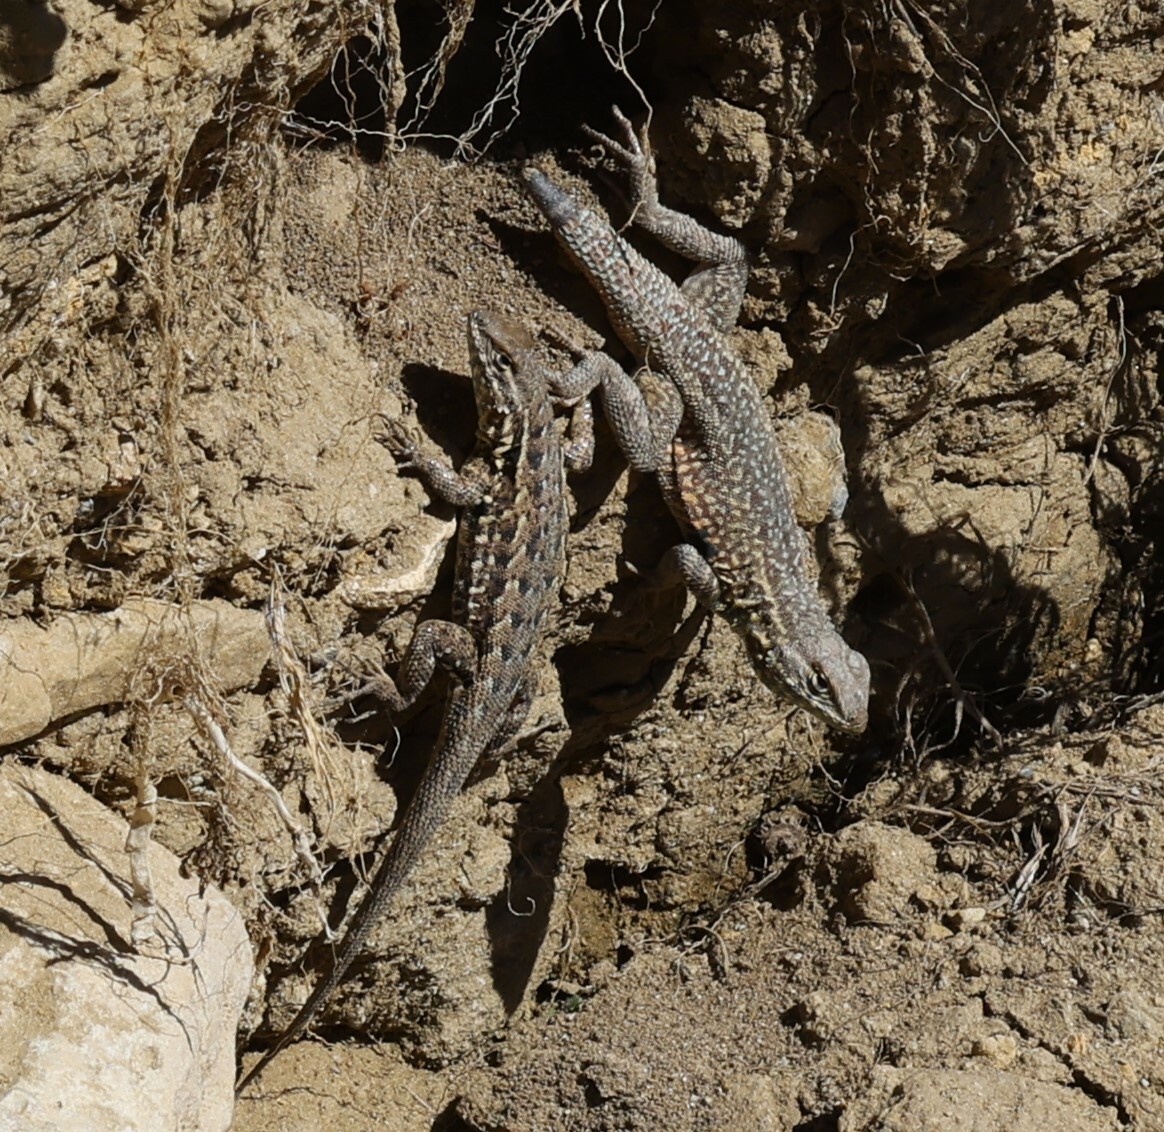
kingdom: Animalia
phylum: Chordata
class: Squamata
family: Phrynosomatidae
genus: Uta
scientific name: Uta stansburiana
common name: Side-blotched lizard
